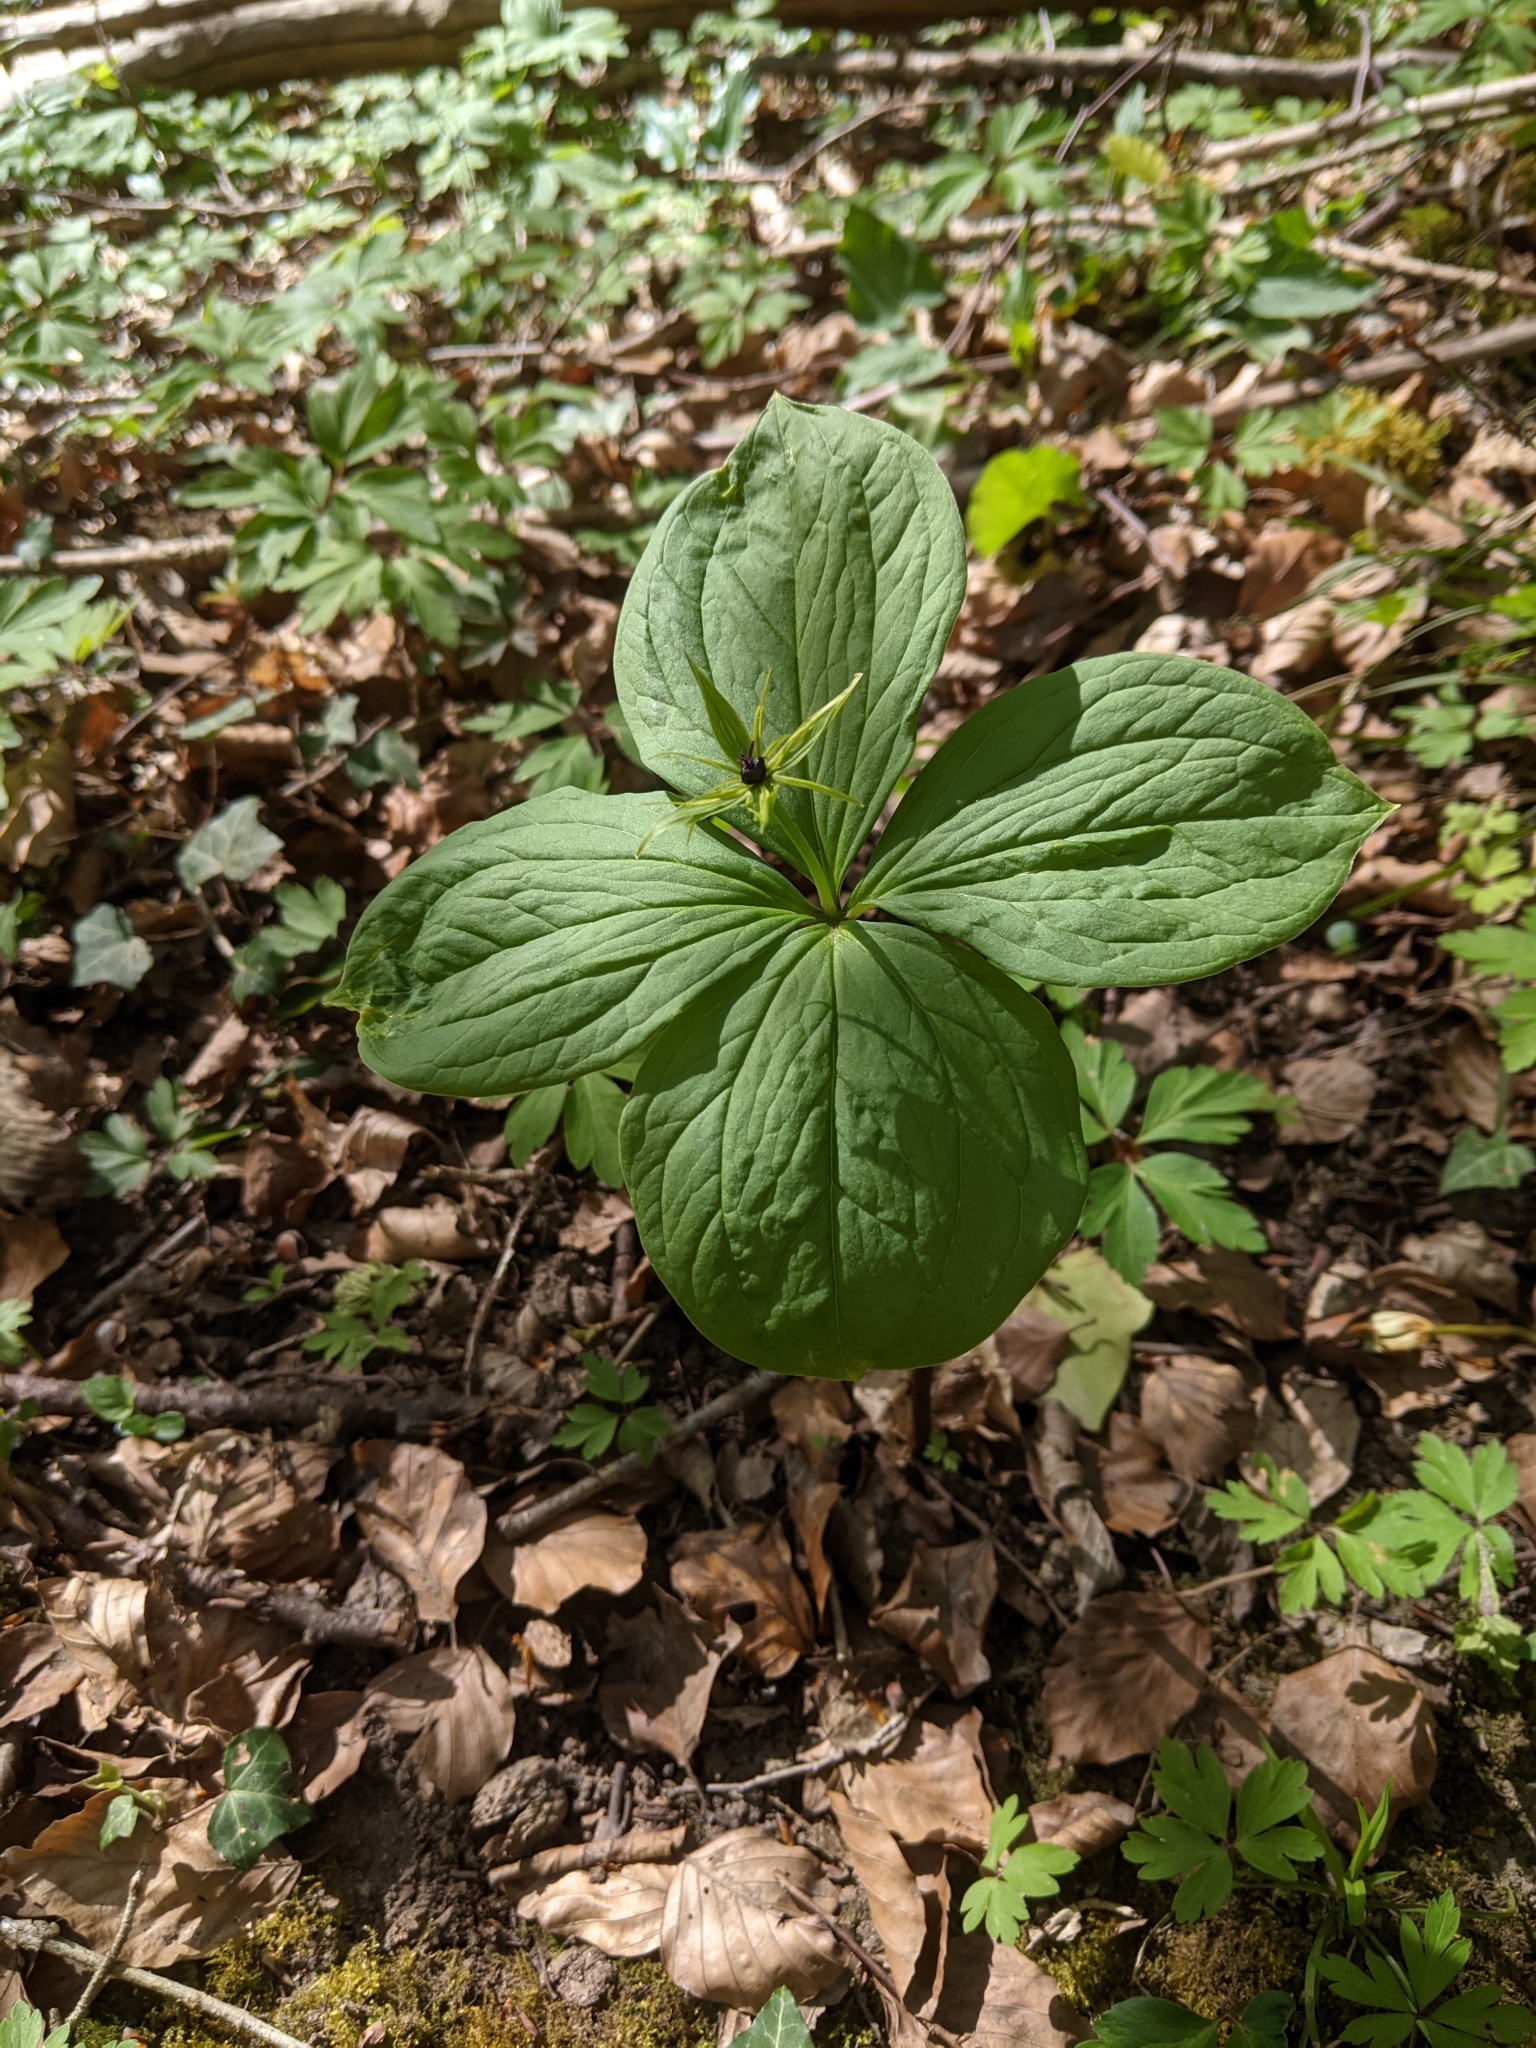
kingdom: Plantae
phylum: Tracheophyta
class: Liliopsida
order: Liliales
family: Melanthiaceae
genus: Paris
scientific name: Paris quadrifolia
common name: Herb-paris
